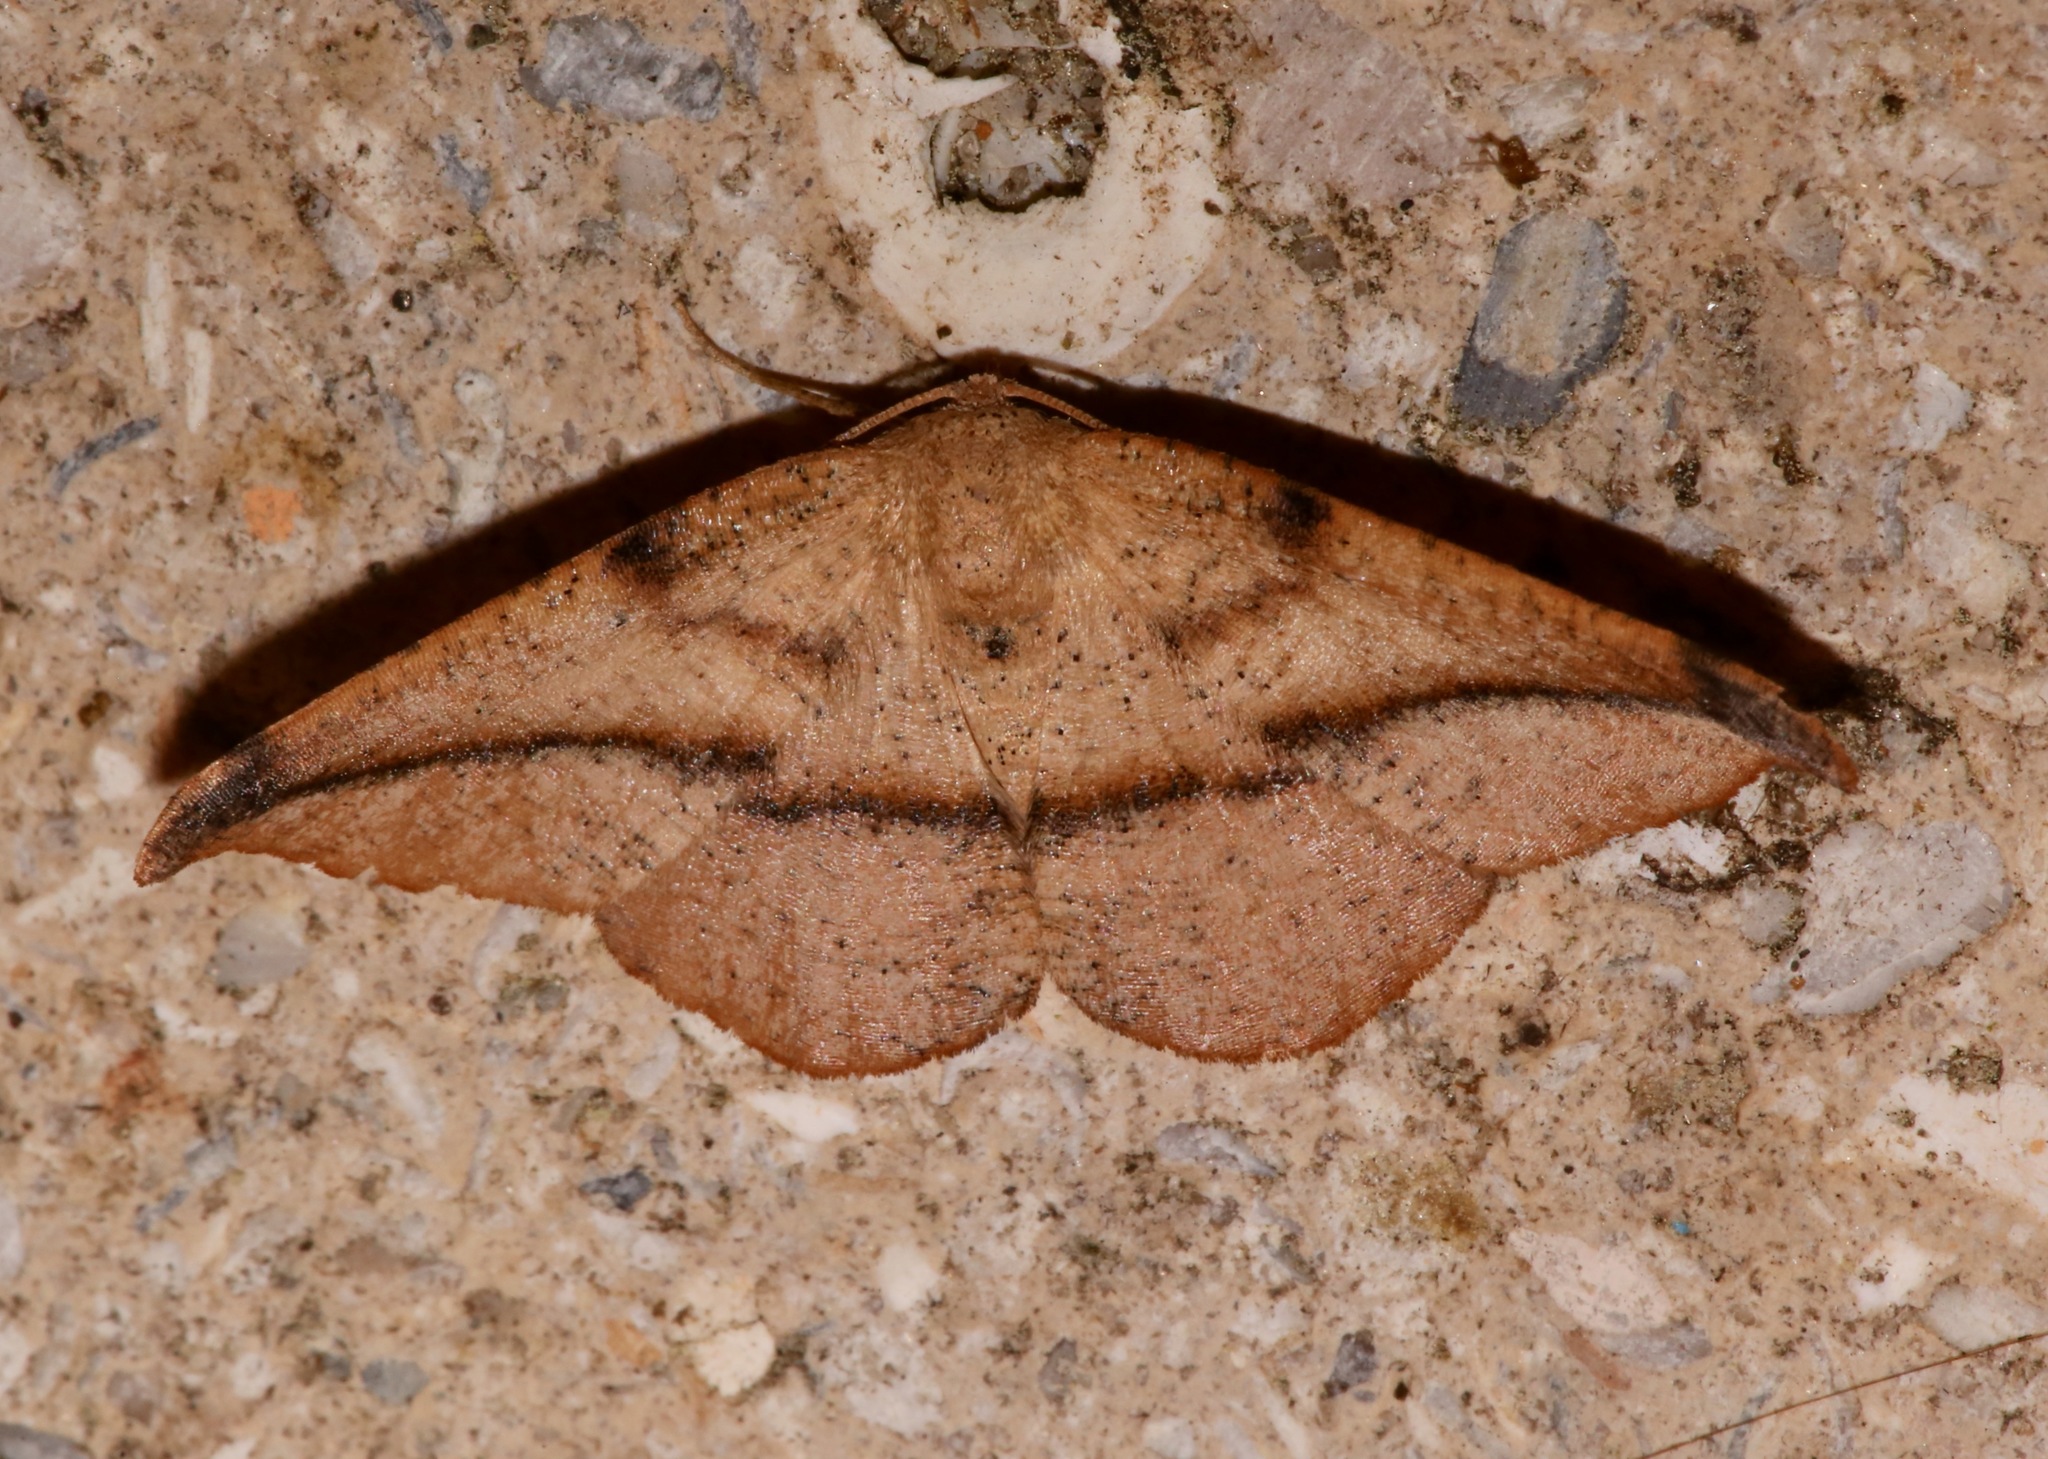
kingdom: Animalia
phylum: Arthropoda
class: Insecta
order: Lepidoptera
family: Geometridae
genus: Patalene
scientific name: Patalene olyzonaria
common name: Juniper geometer moth
